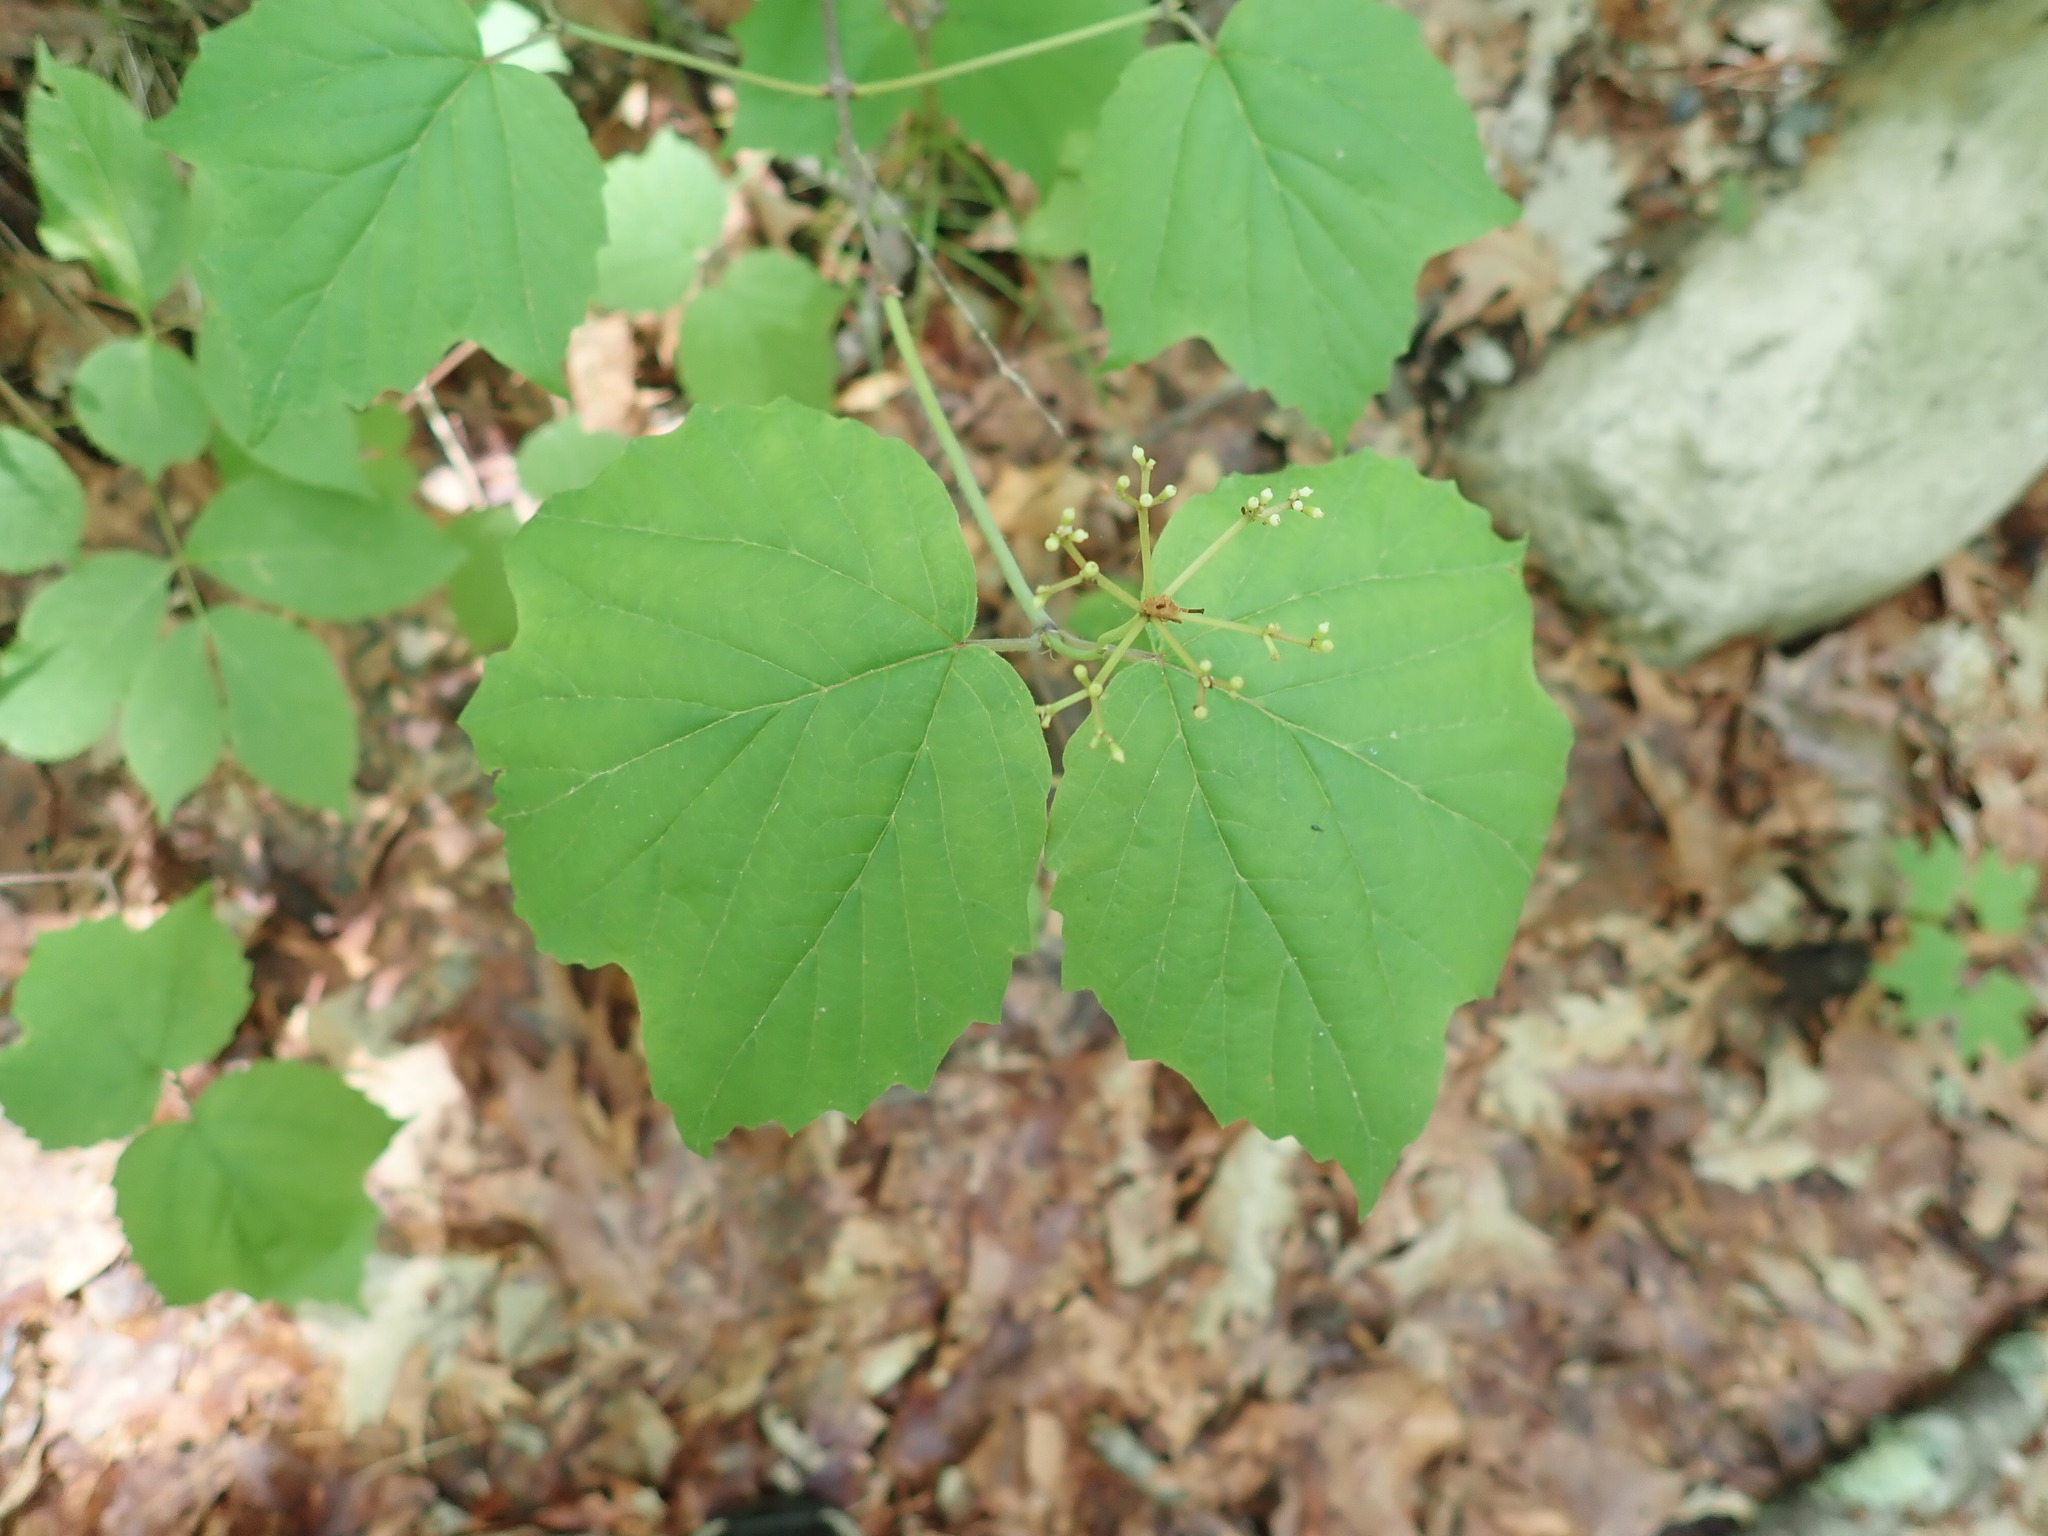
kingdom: Plantae
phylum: Tracheophyta
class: Magnoliopsida
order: Dipsacales
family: Viburnaceae
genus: Viburnum
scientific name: Viburnum acerifolium
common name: Dockmackie
